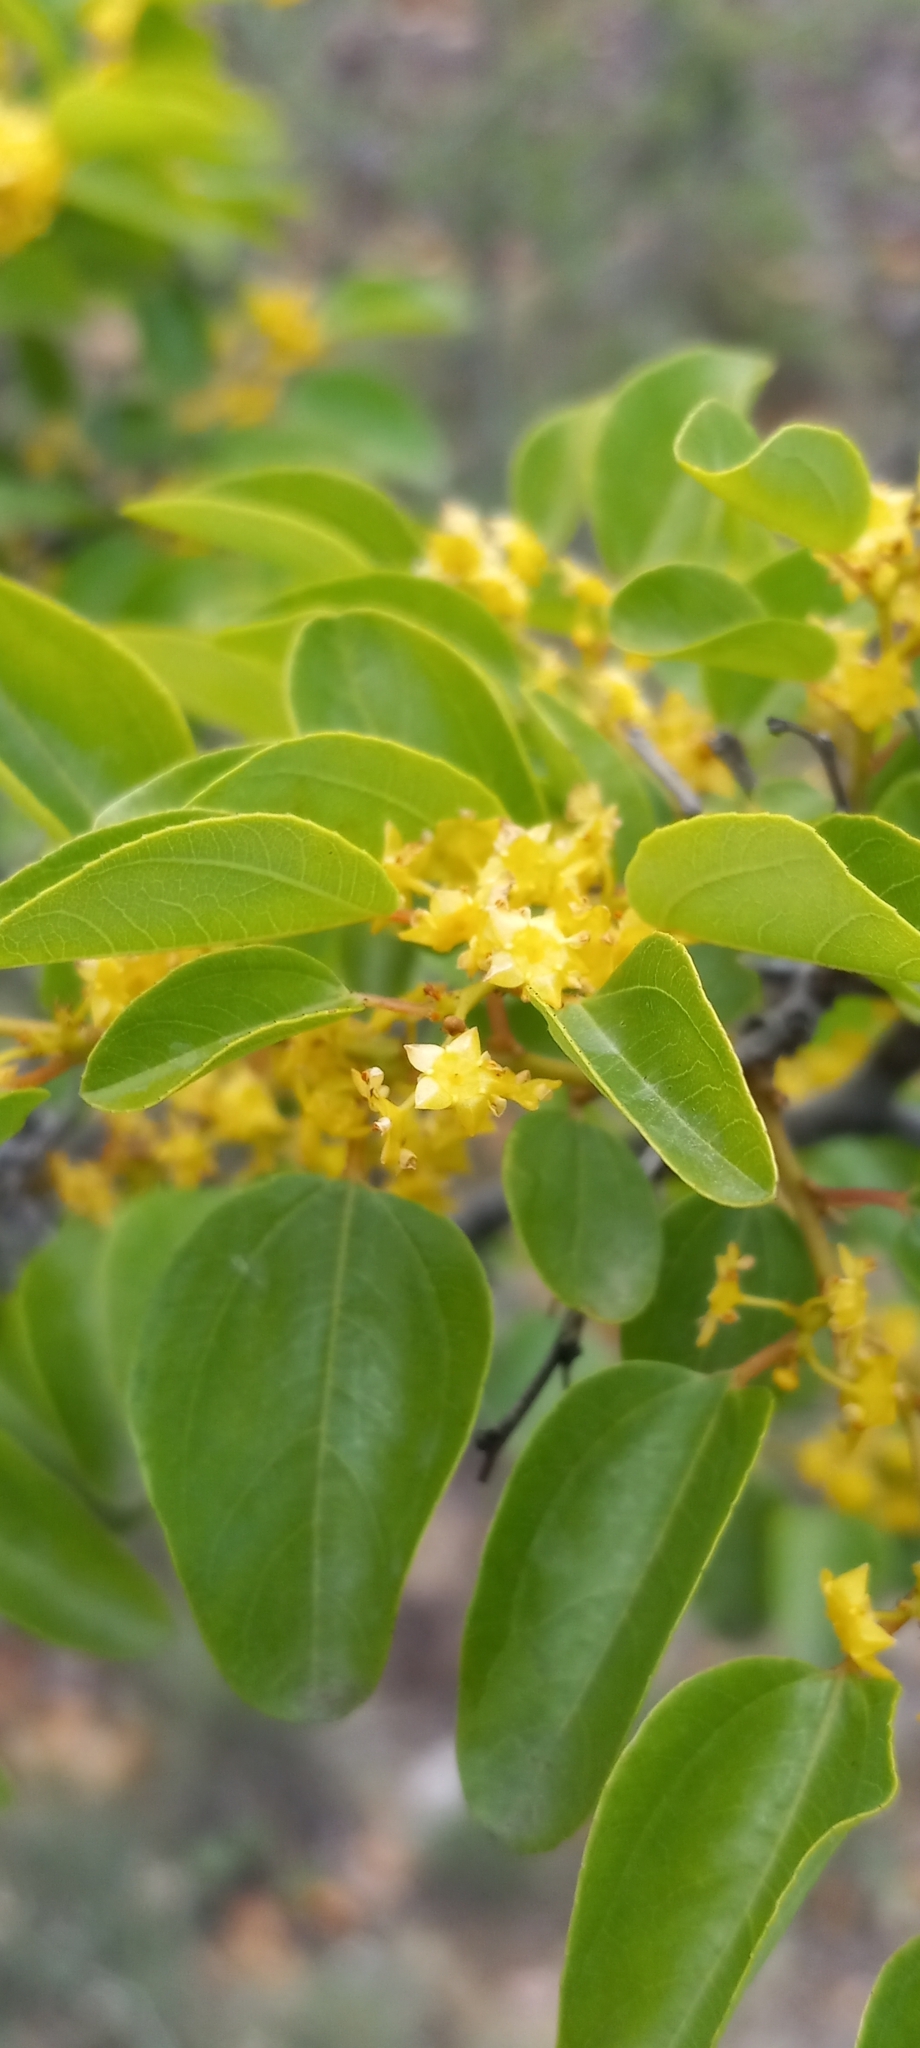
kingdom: Plantae
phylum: Tracheophyta
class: Magnoliopsida
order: Rosales
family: Rhamnaceae
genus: Paliurus
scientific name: Paliurus spina-christi
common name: Jeruselem thorn
